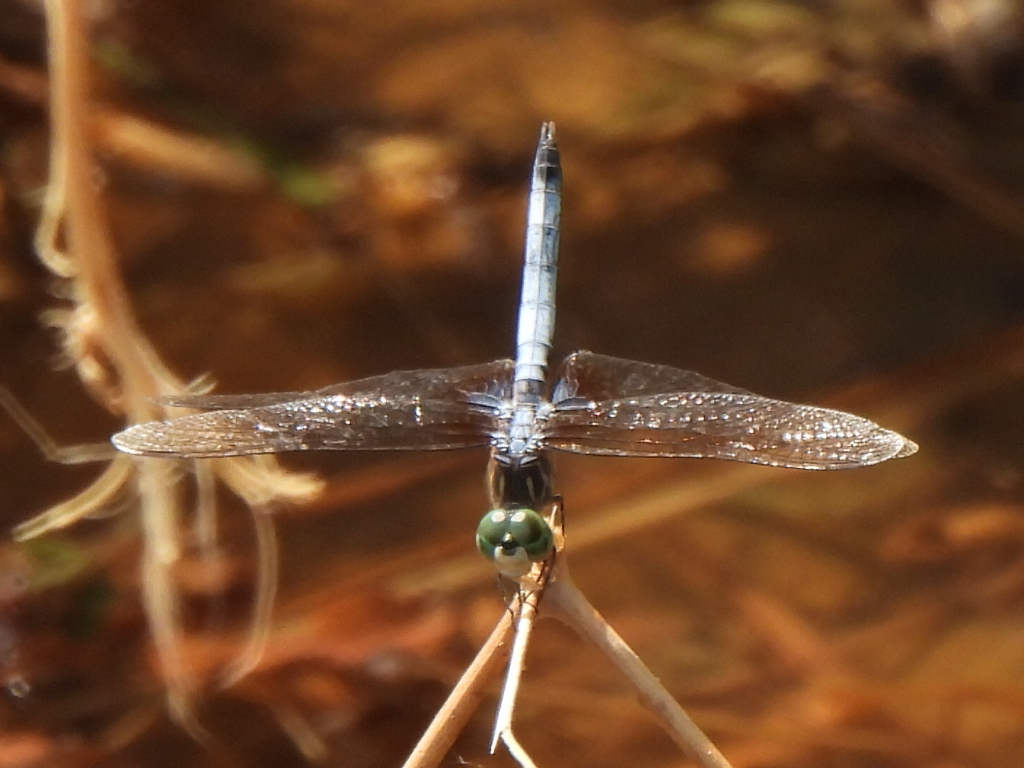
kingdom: Animalia
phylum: Arthropoda
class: Insecta
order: Odonata
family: Libellulidae
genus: Pachydiplax
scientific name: Pachydiplax longipennis
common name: Blue dasher
